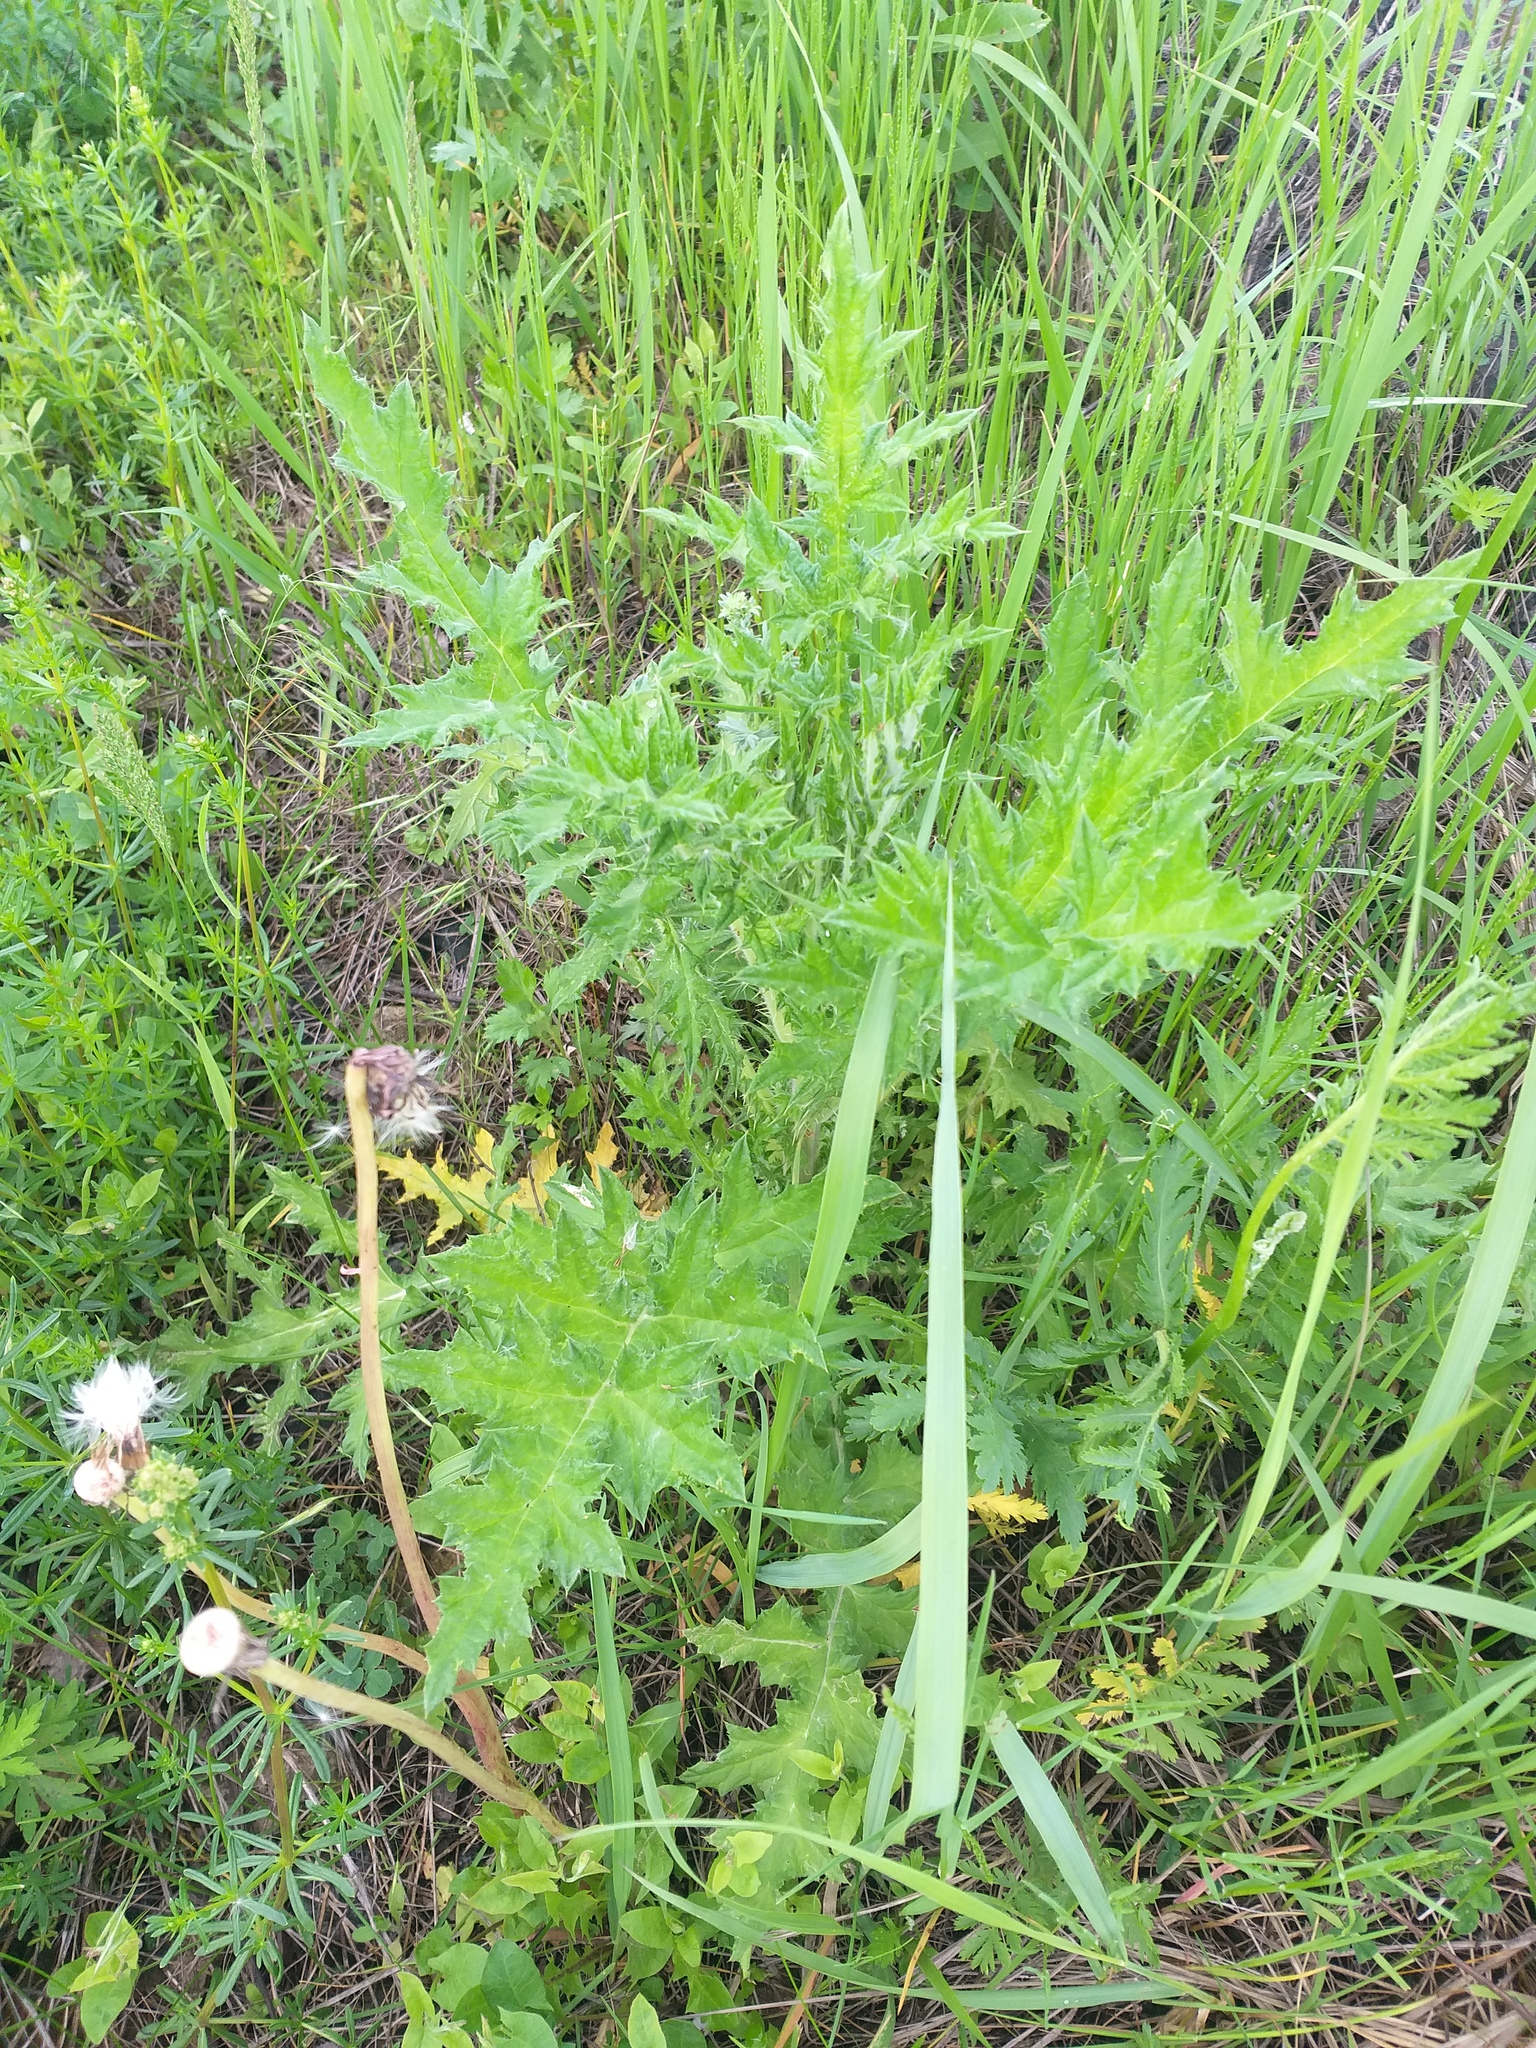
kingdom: Plantae
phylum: Tracheophyta
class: Magnoliopsida
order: Asterales
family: Asteraceae
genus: Echinops
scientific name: Echinops sphaerocephalus
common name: Glandular globe-thistle
